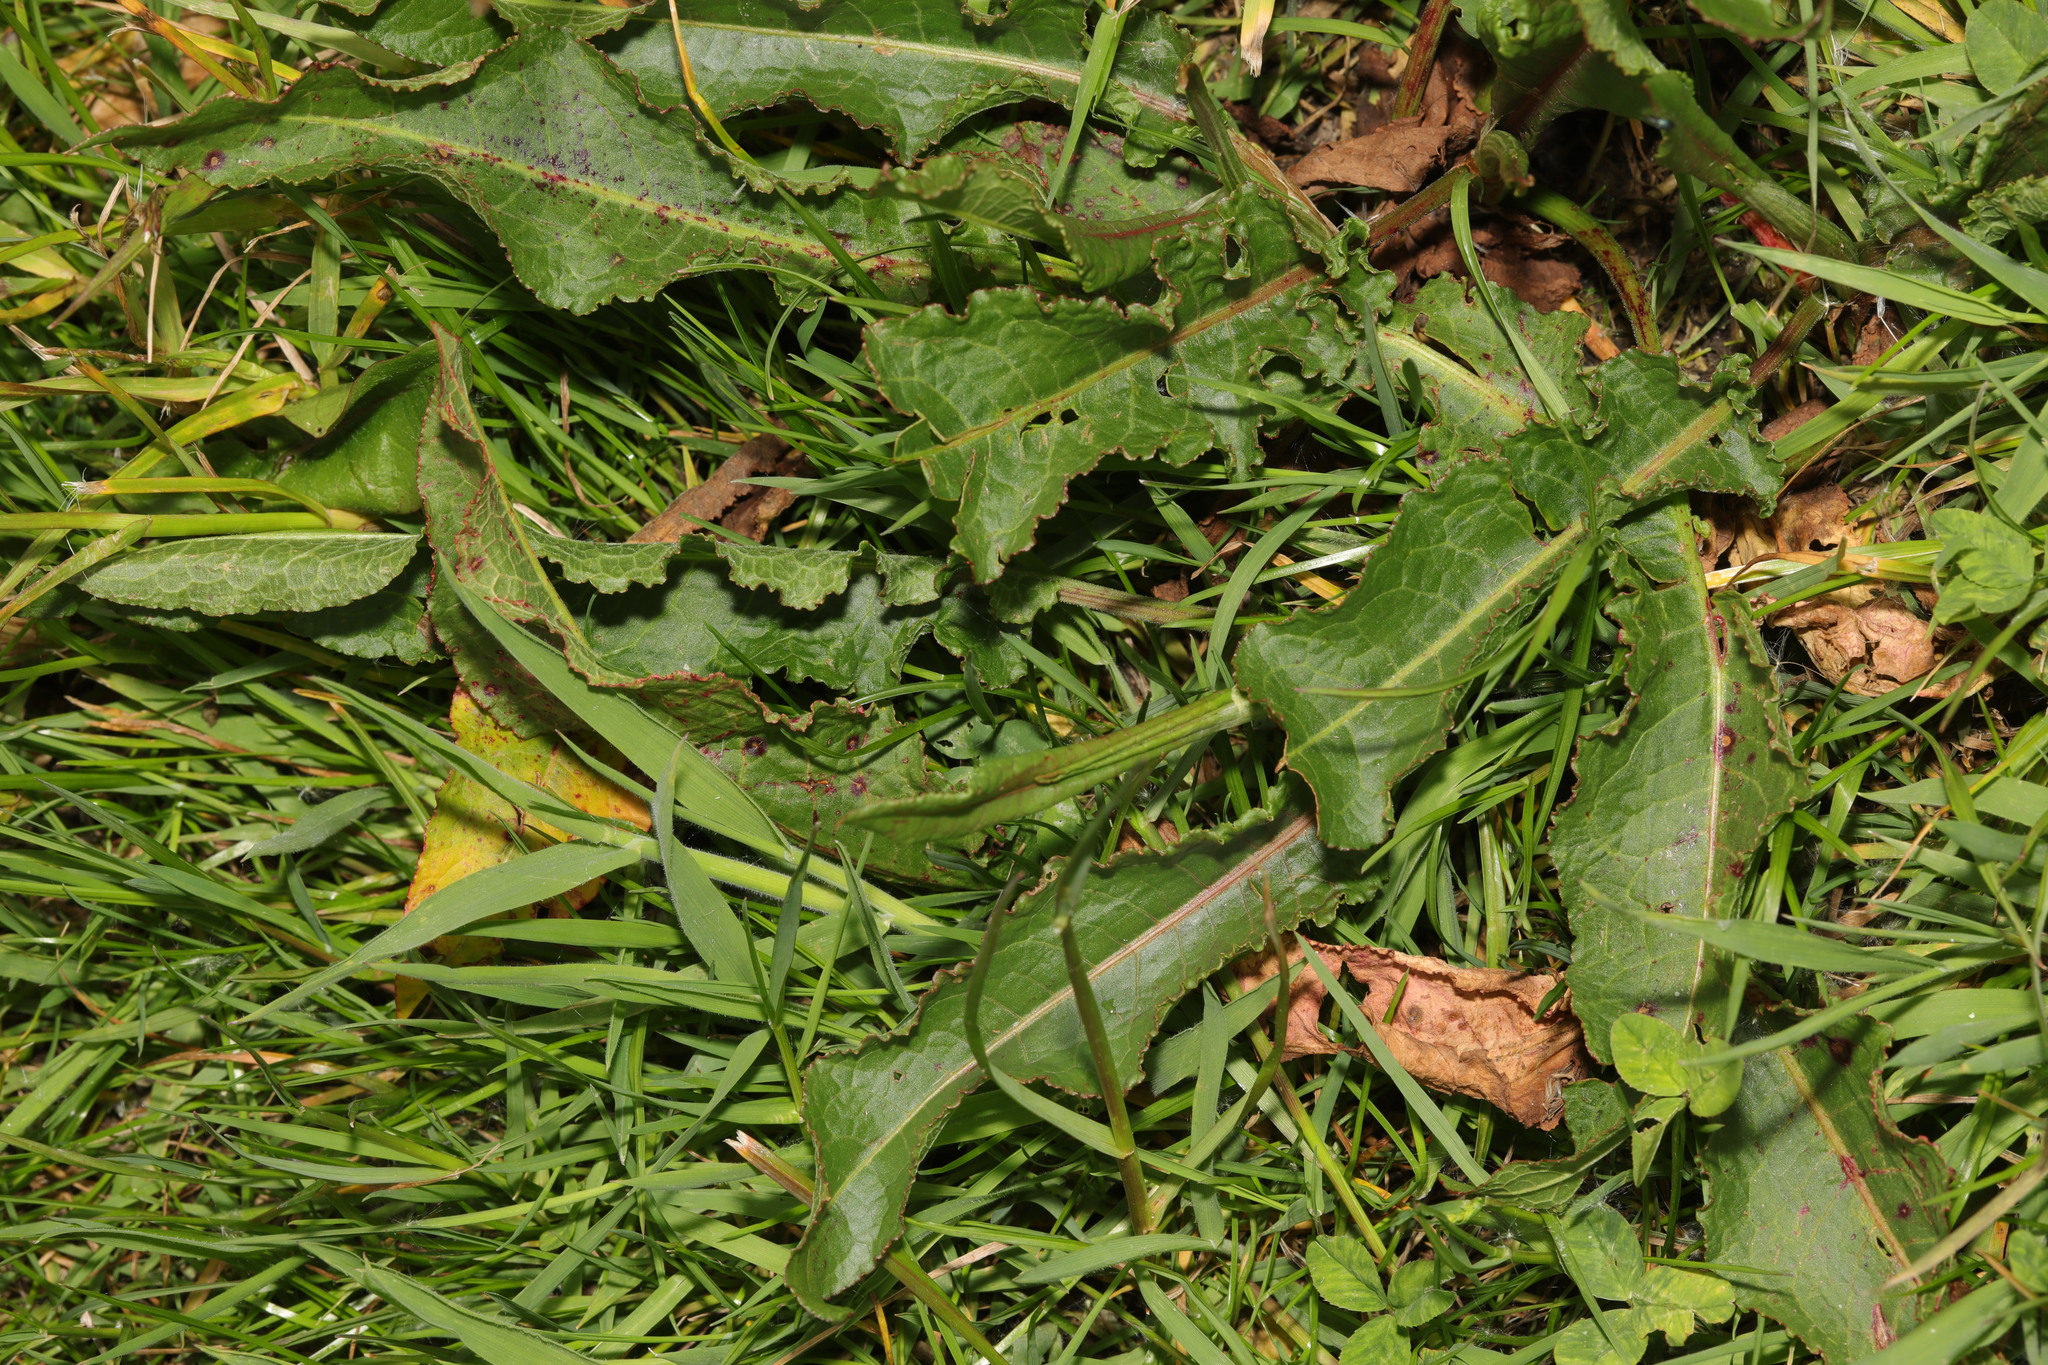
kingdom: Plantae
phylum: Tracheophyta
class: Magnoliopsida
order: Caryophyllales
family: Polygonaceae
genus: Rumex
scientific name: Rumex crispus
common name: Curled dock
